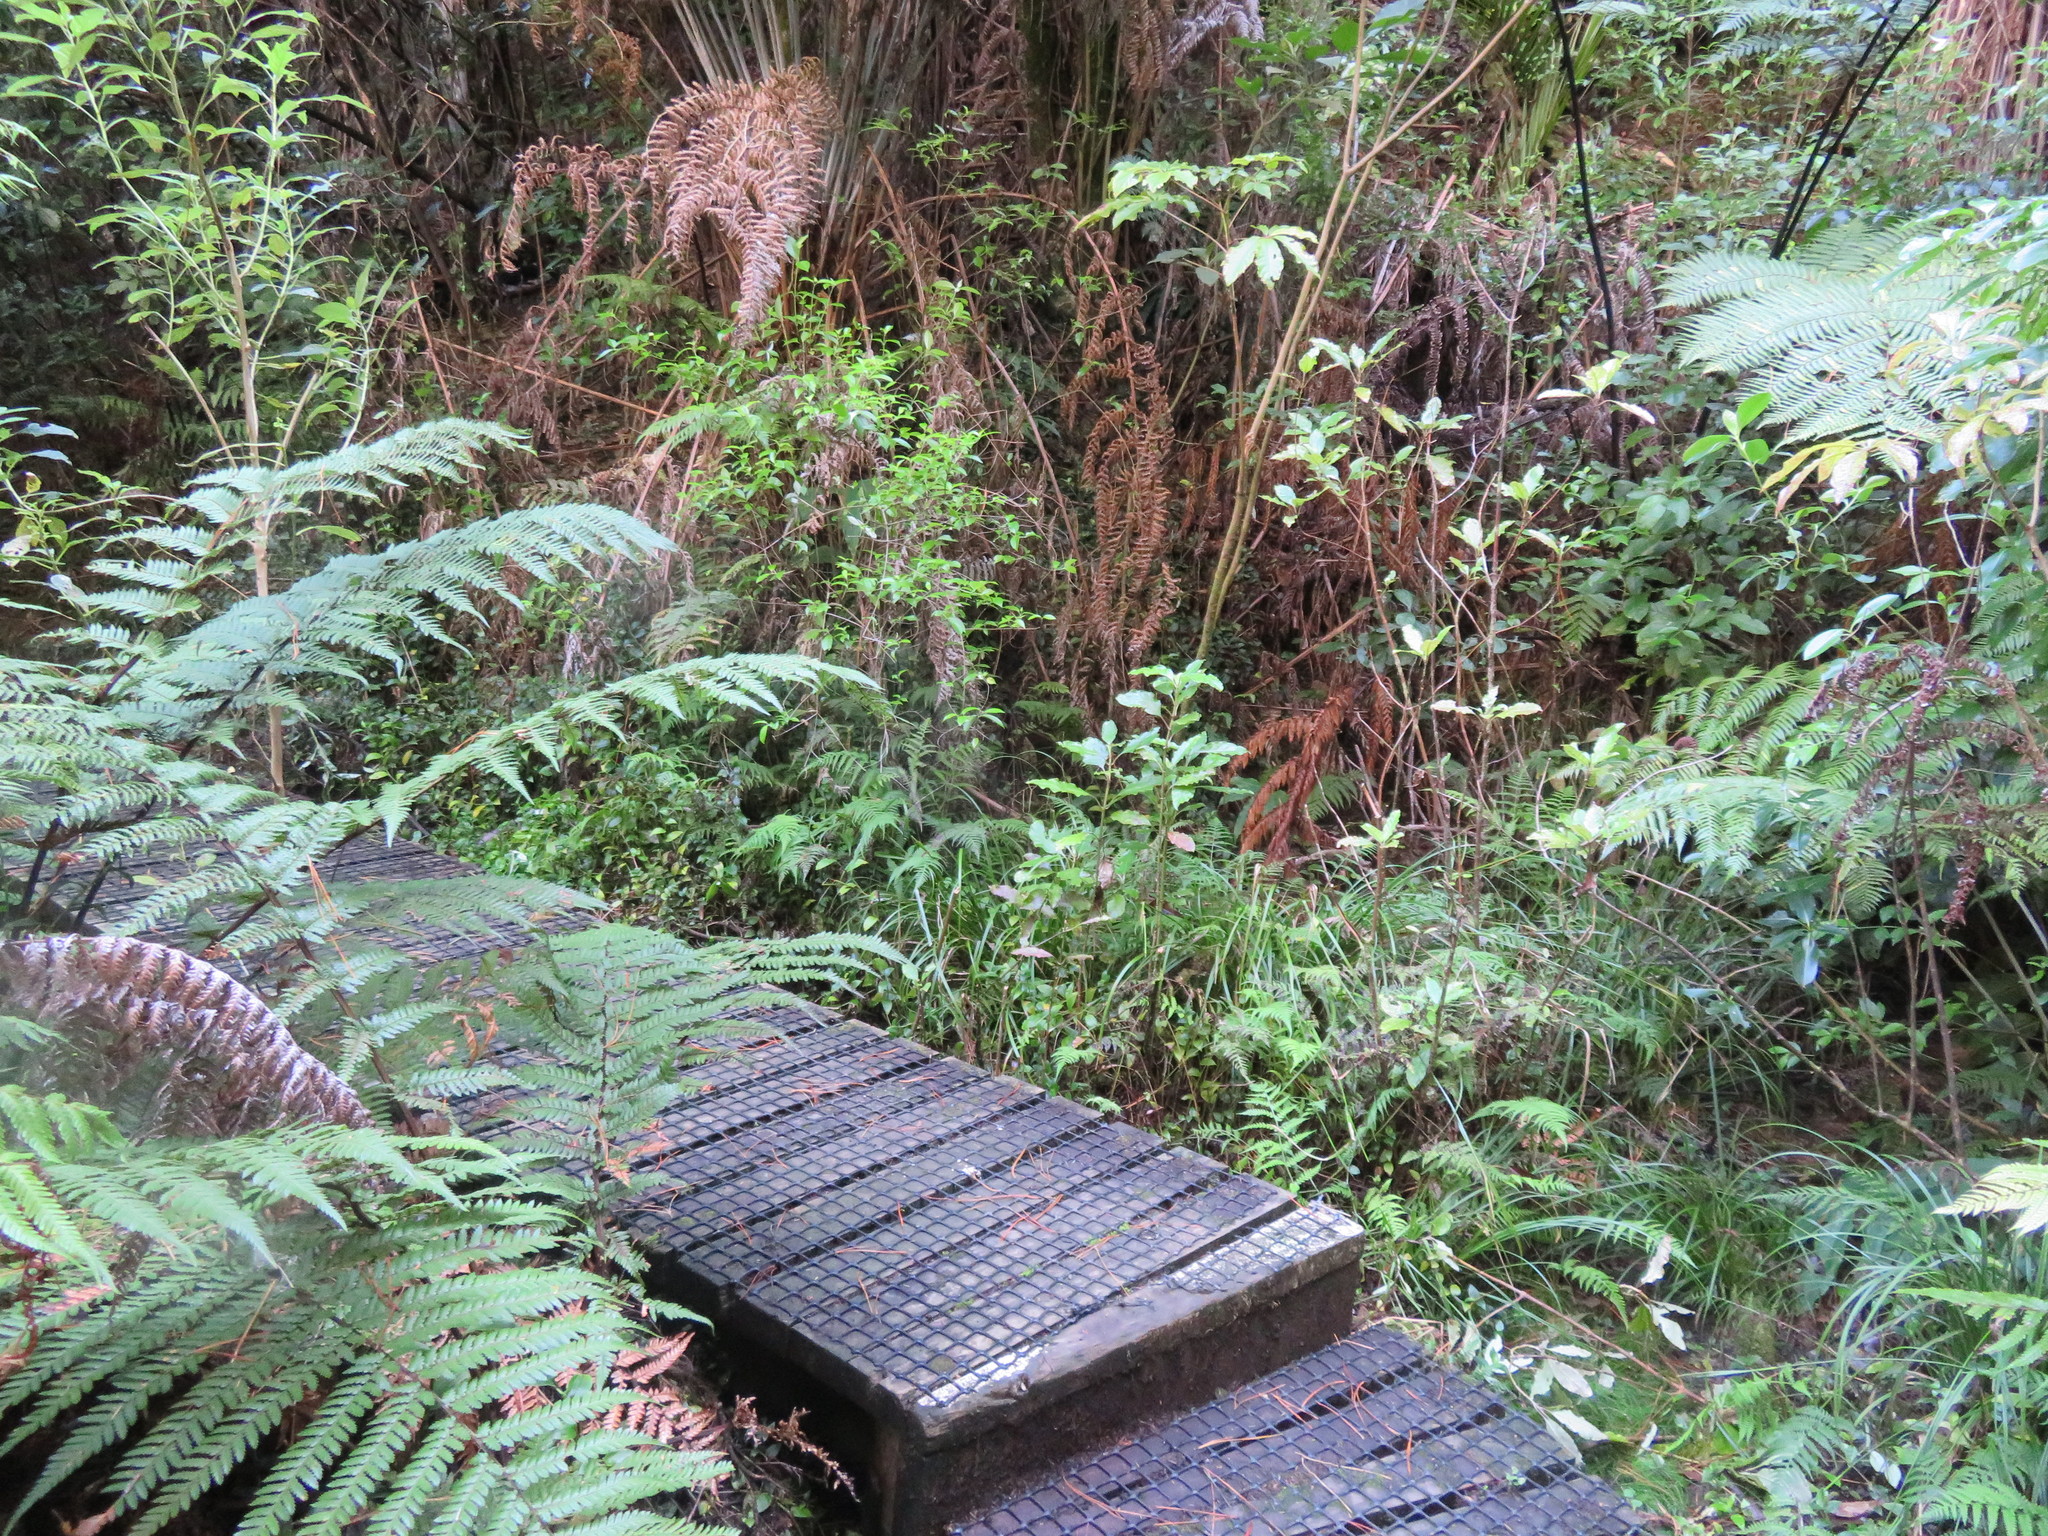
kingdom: Plantae
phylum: Tracheophyta
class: Magnoliopsida
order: Apiales
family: Araliaceae
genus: Schefflera
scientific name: Schefflera digitata
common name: Pate
